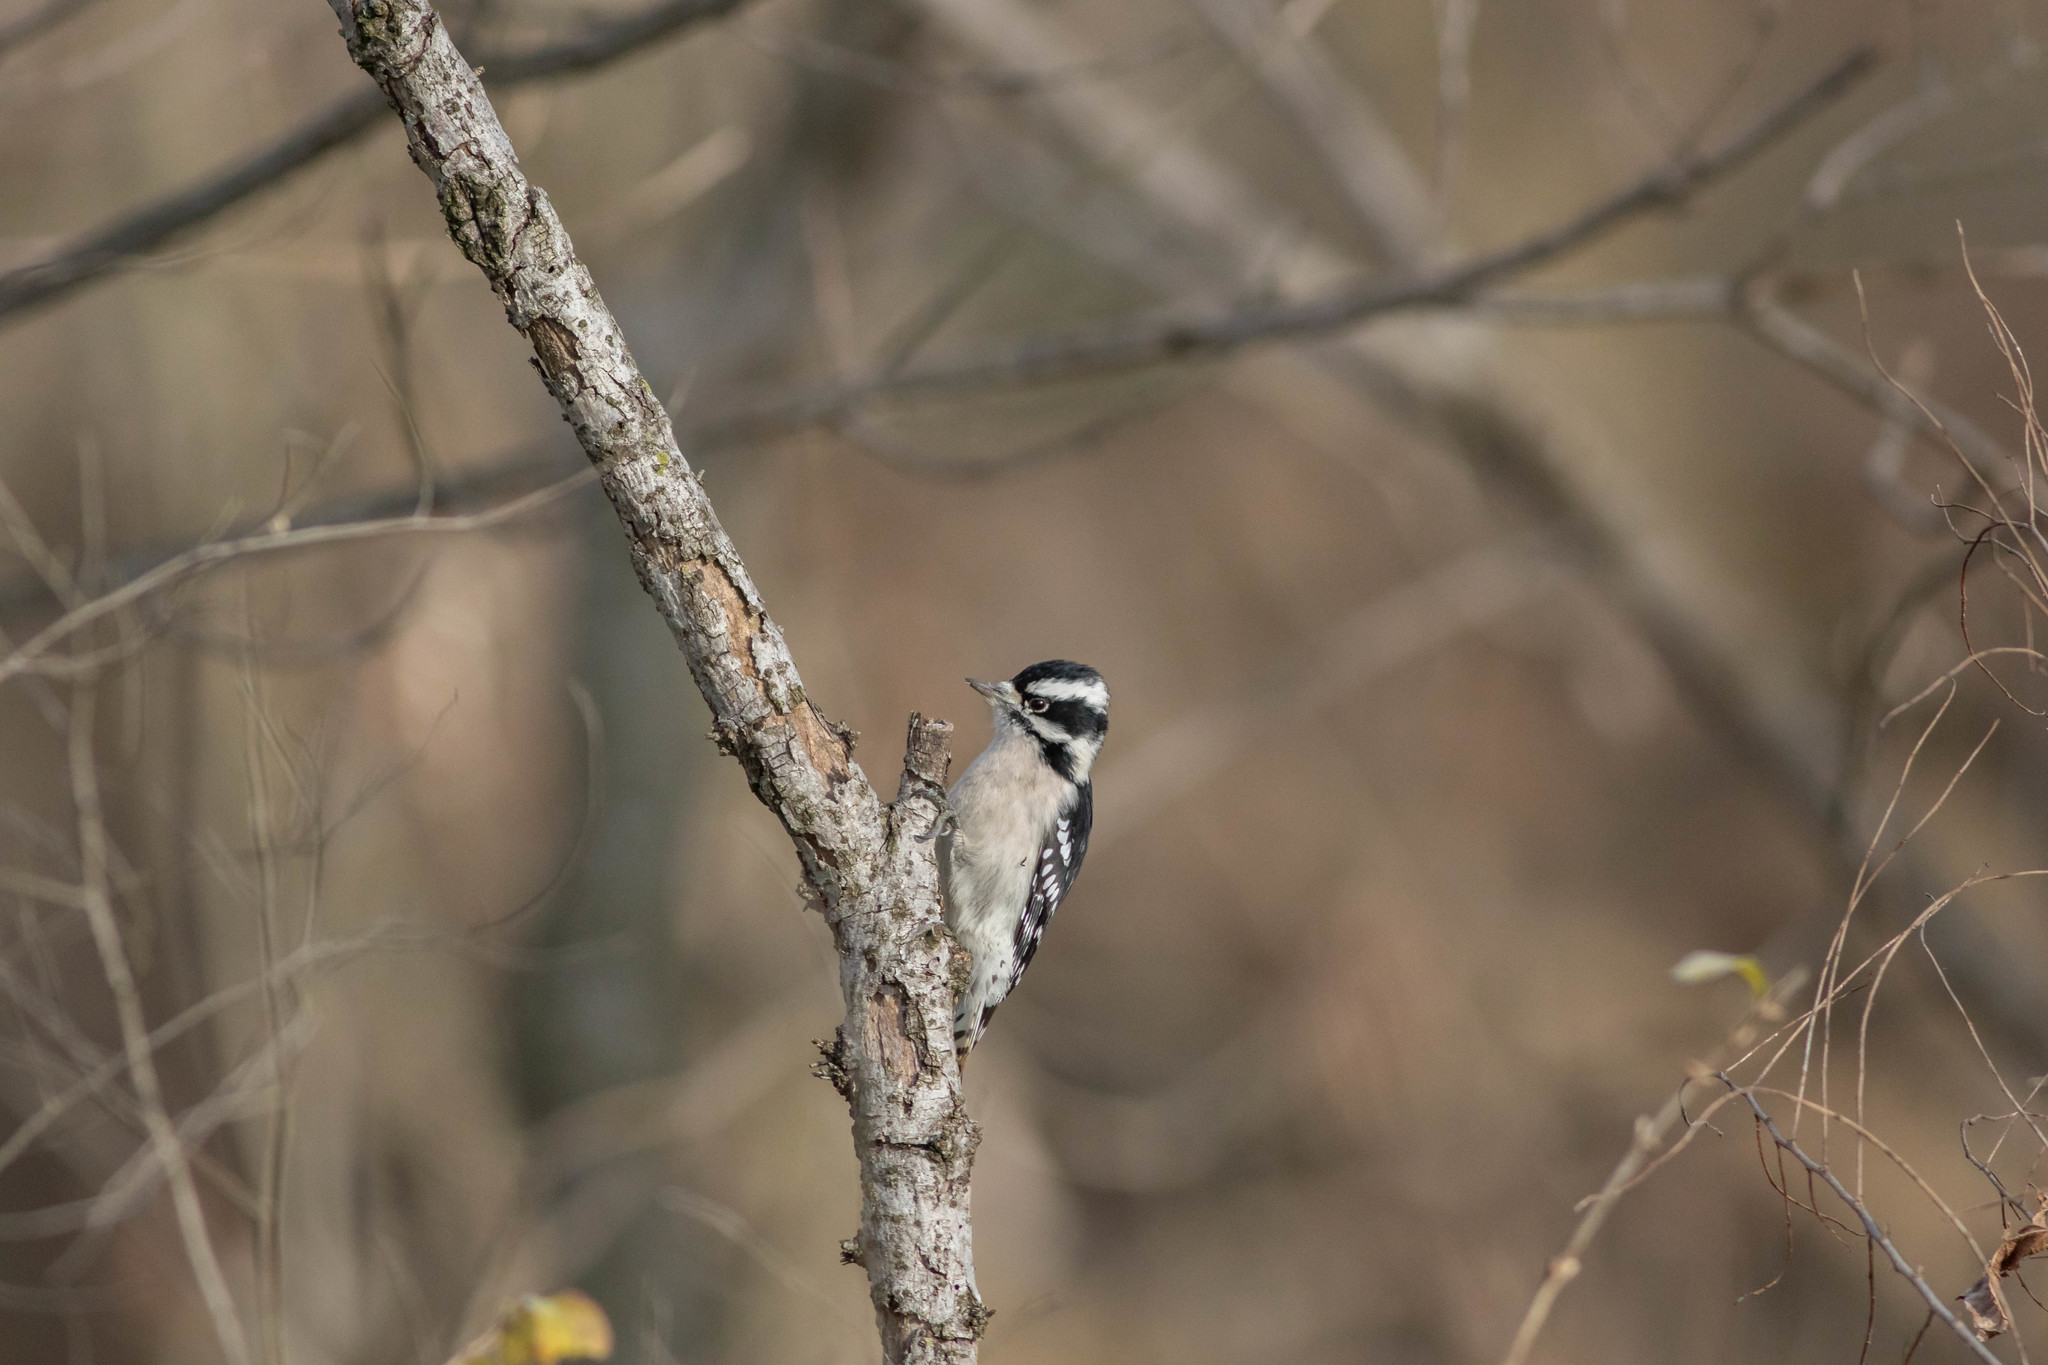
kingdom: Animalia
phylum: Chordata
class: Aves
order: Piciformes
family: Picidae
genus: Dryobates
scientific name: Dryobates pubescens
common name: Downy woodpecker
